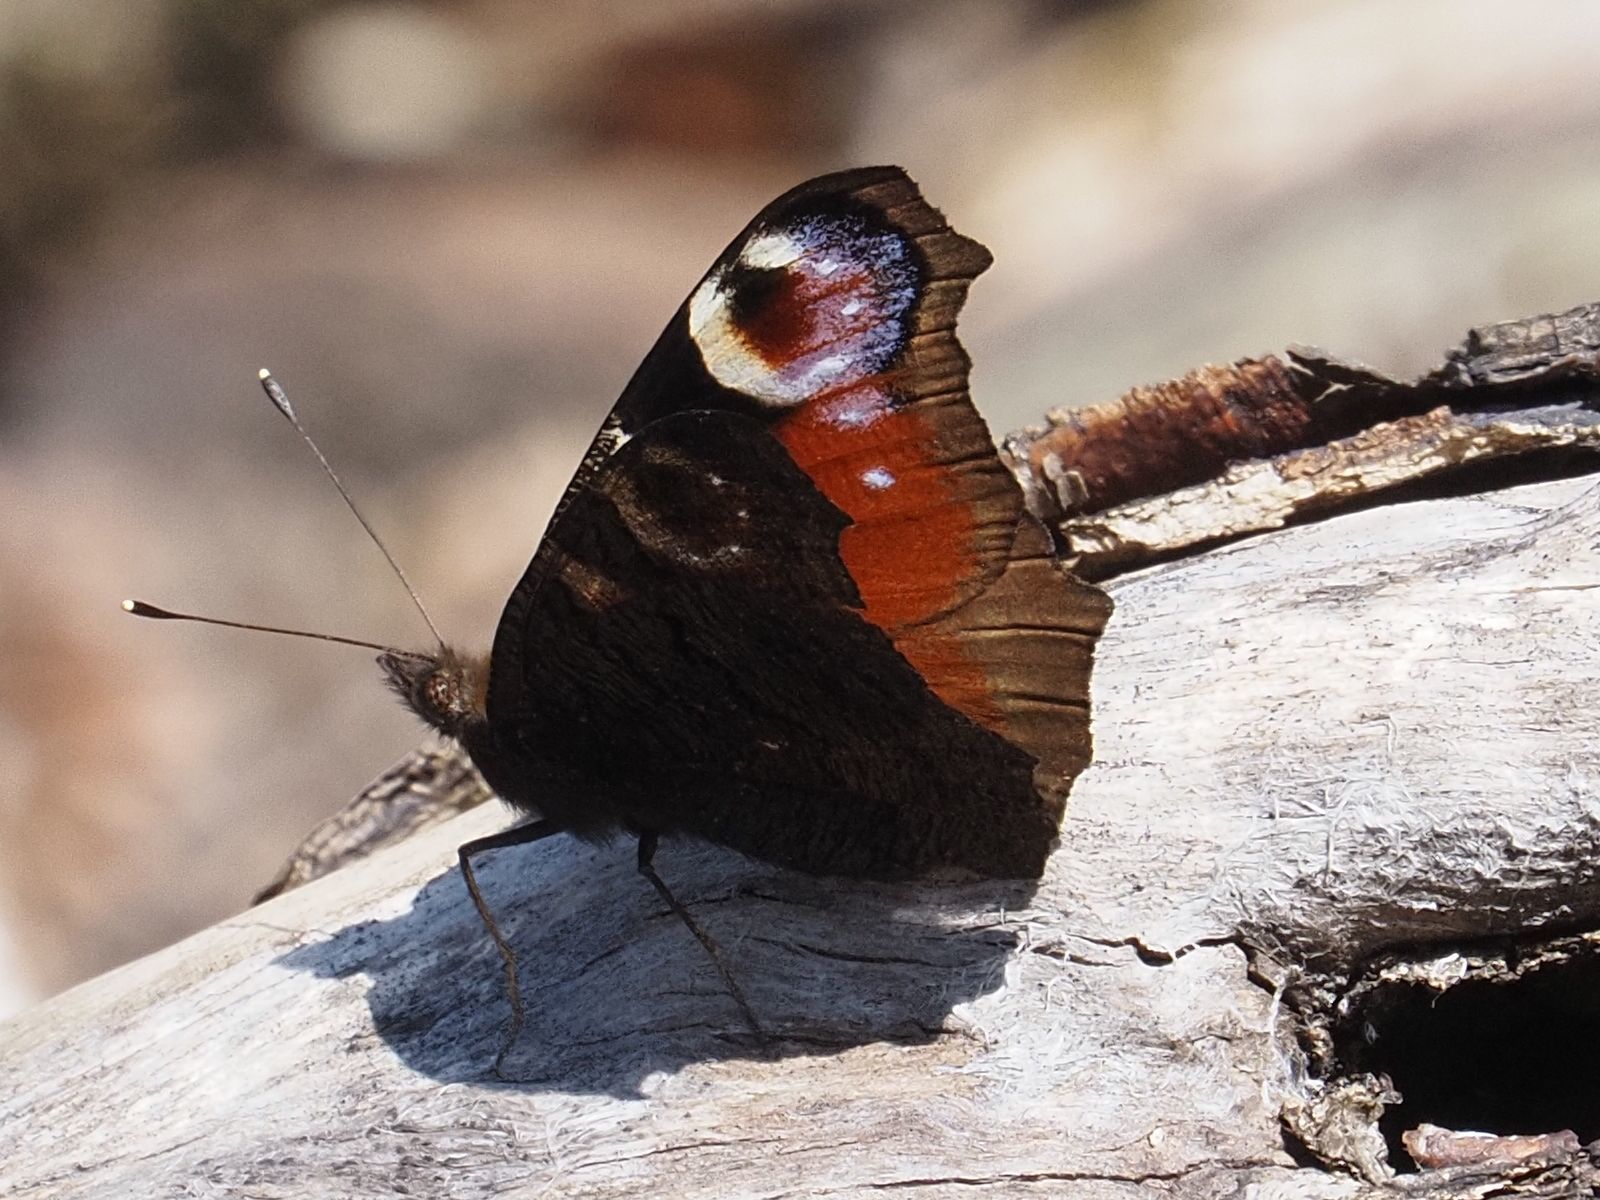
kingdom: Animalia
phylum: Arthropoda
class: Insecta
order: Lepidoptera
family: Nymphalidae
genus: Aglais
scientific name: Aglais io
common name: Peacock
